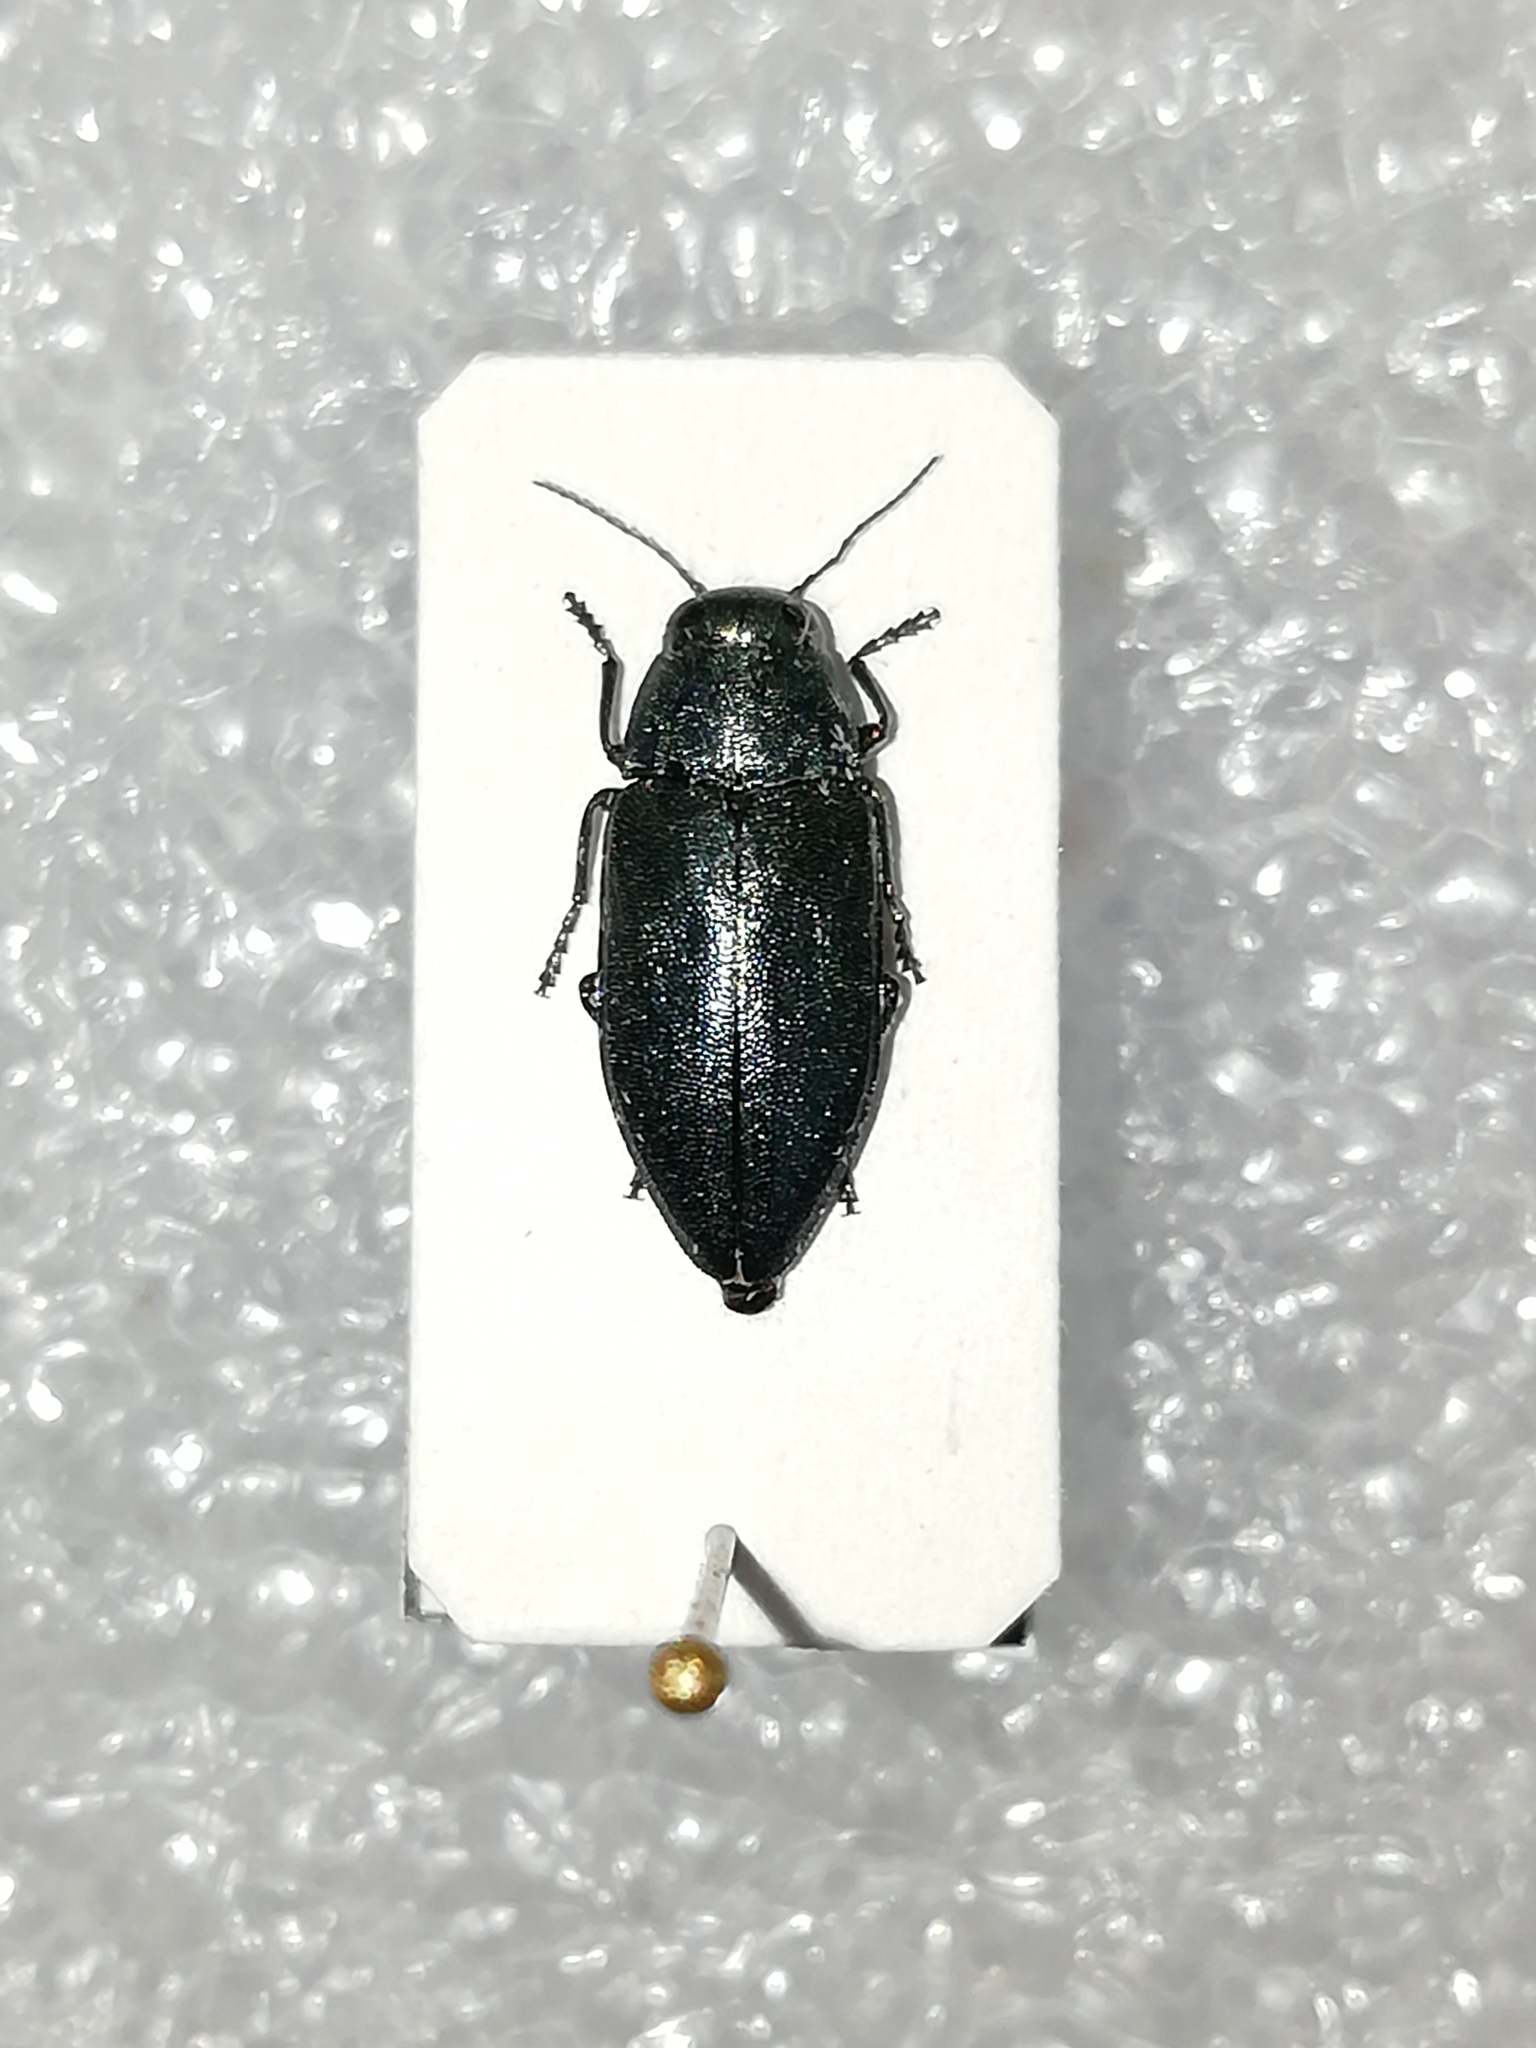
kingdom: Animalia
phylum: Arthropoda
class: Insecta
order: Coleoptera
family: Buprestidae
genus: Phaenops
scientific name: Phaenops cyanea
